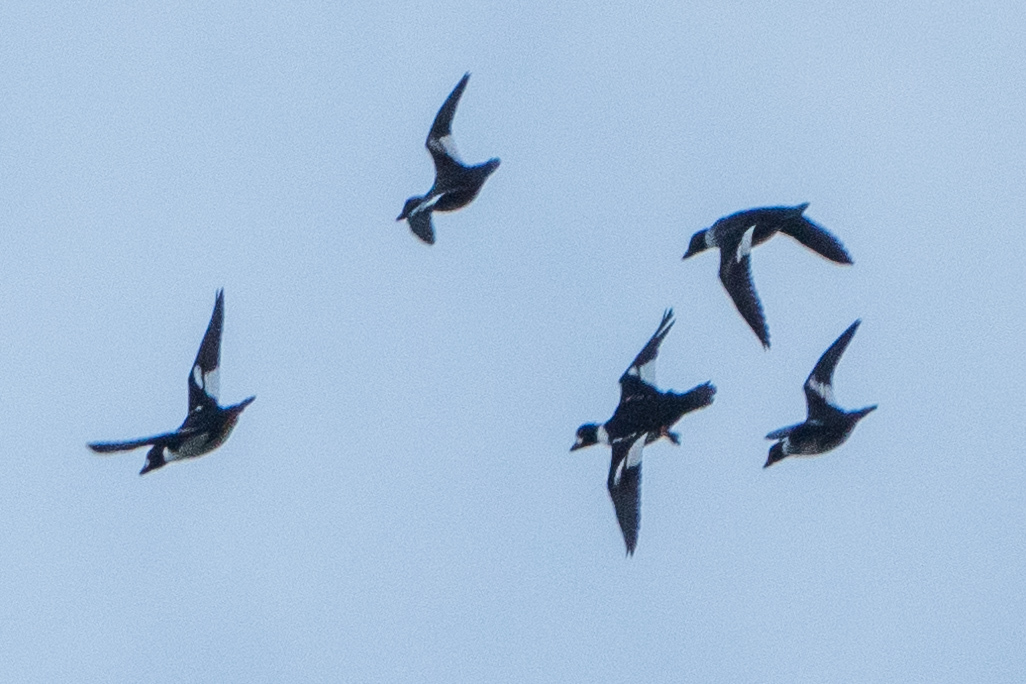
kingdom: Animalia
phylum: Chordata
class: Aves
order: Anseriformes
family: Anatidae
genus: Bucephala
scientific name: Bucephala islandica
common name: Barrow's goldeneye
